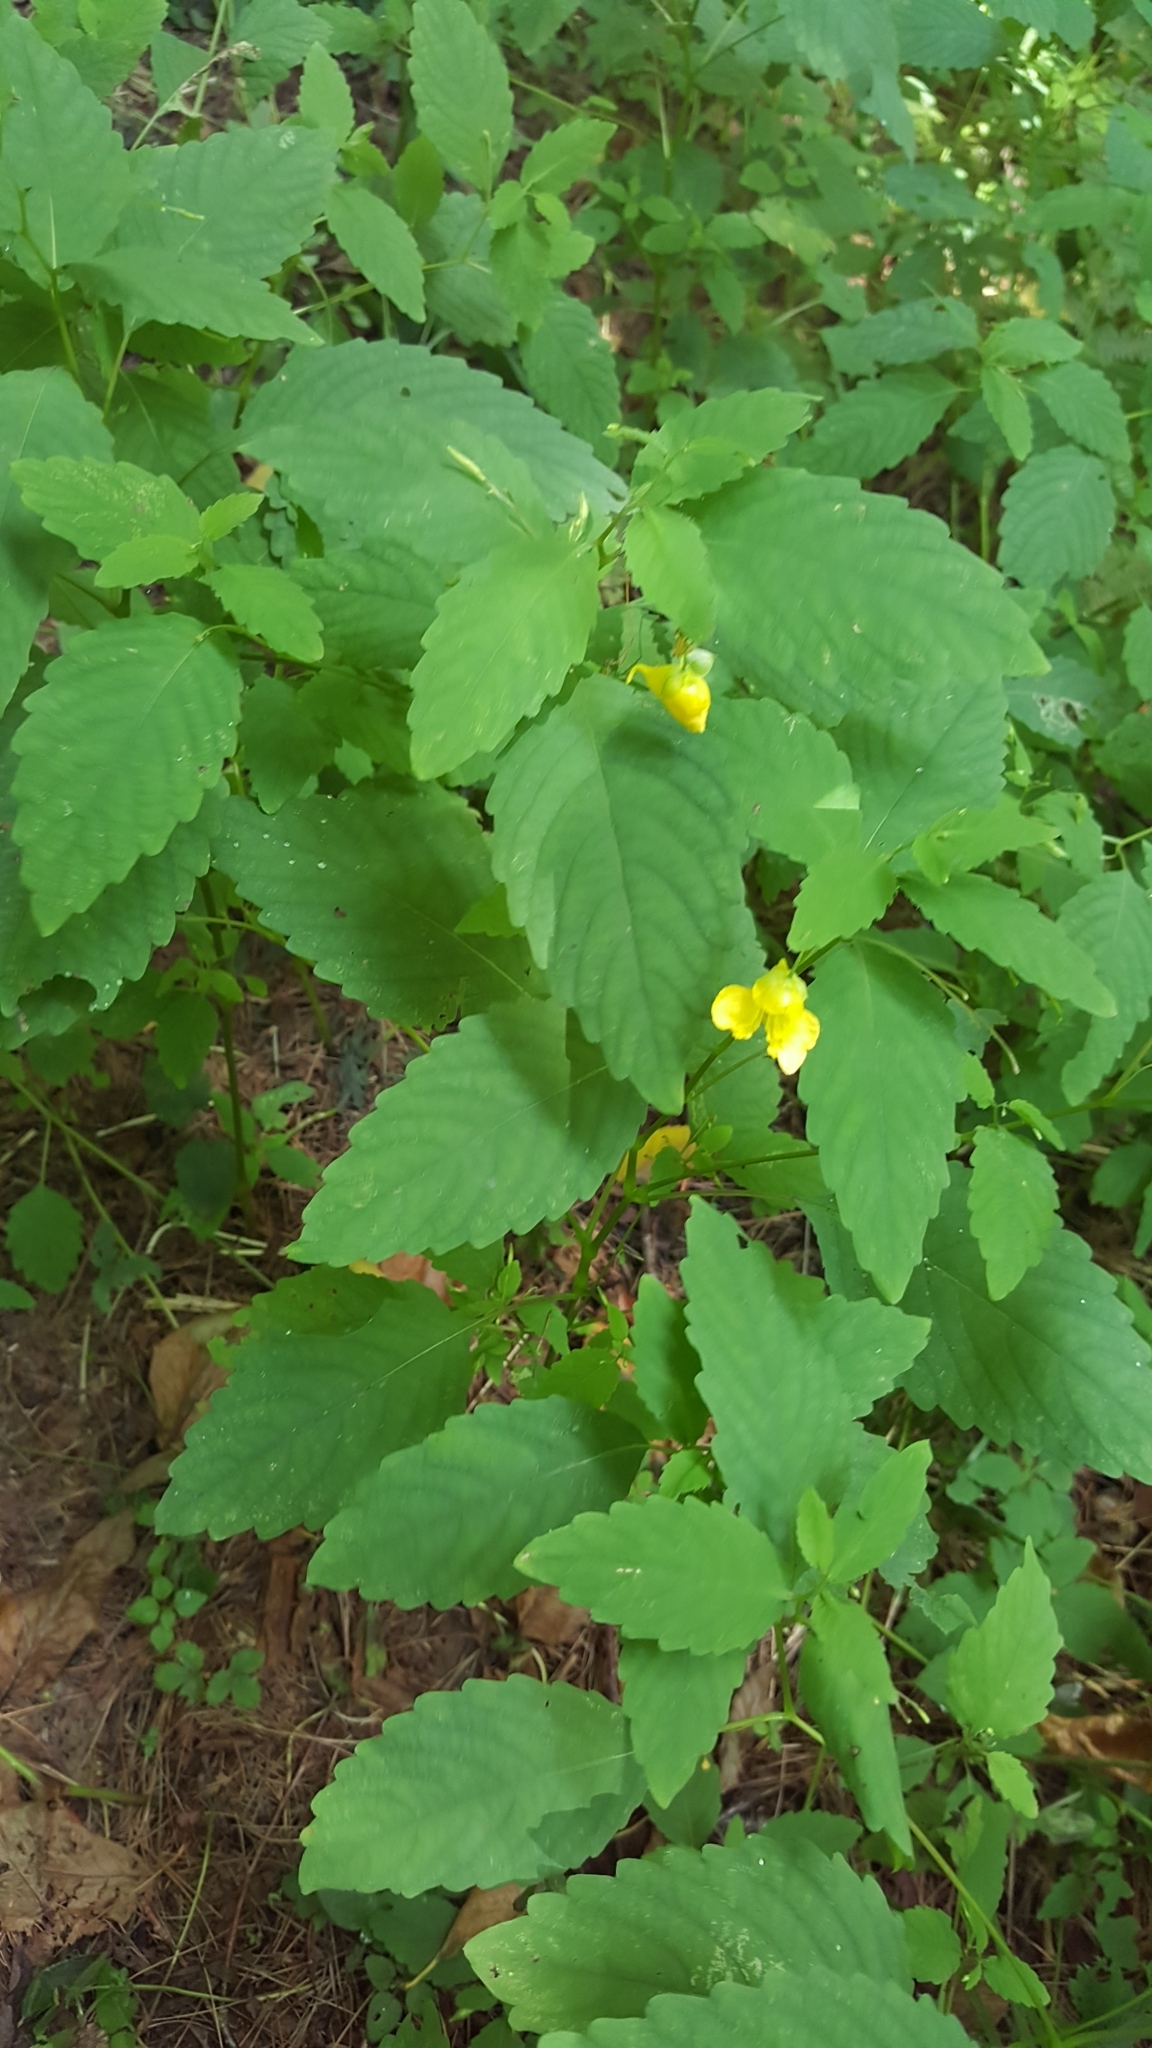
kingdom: Plantae
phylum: Tracheophyta
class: Magnoliopsida
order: Ericales
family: Balsaminaceae
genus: Impatiens
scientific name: Impatiens pallida
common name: Pale snapweed
